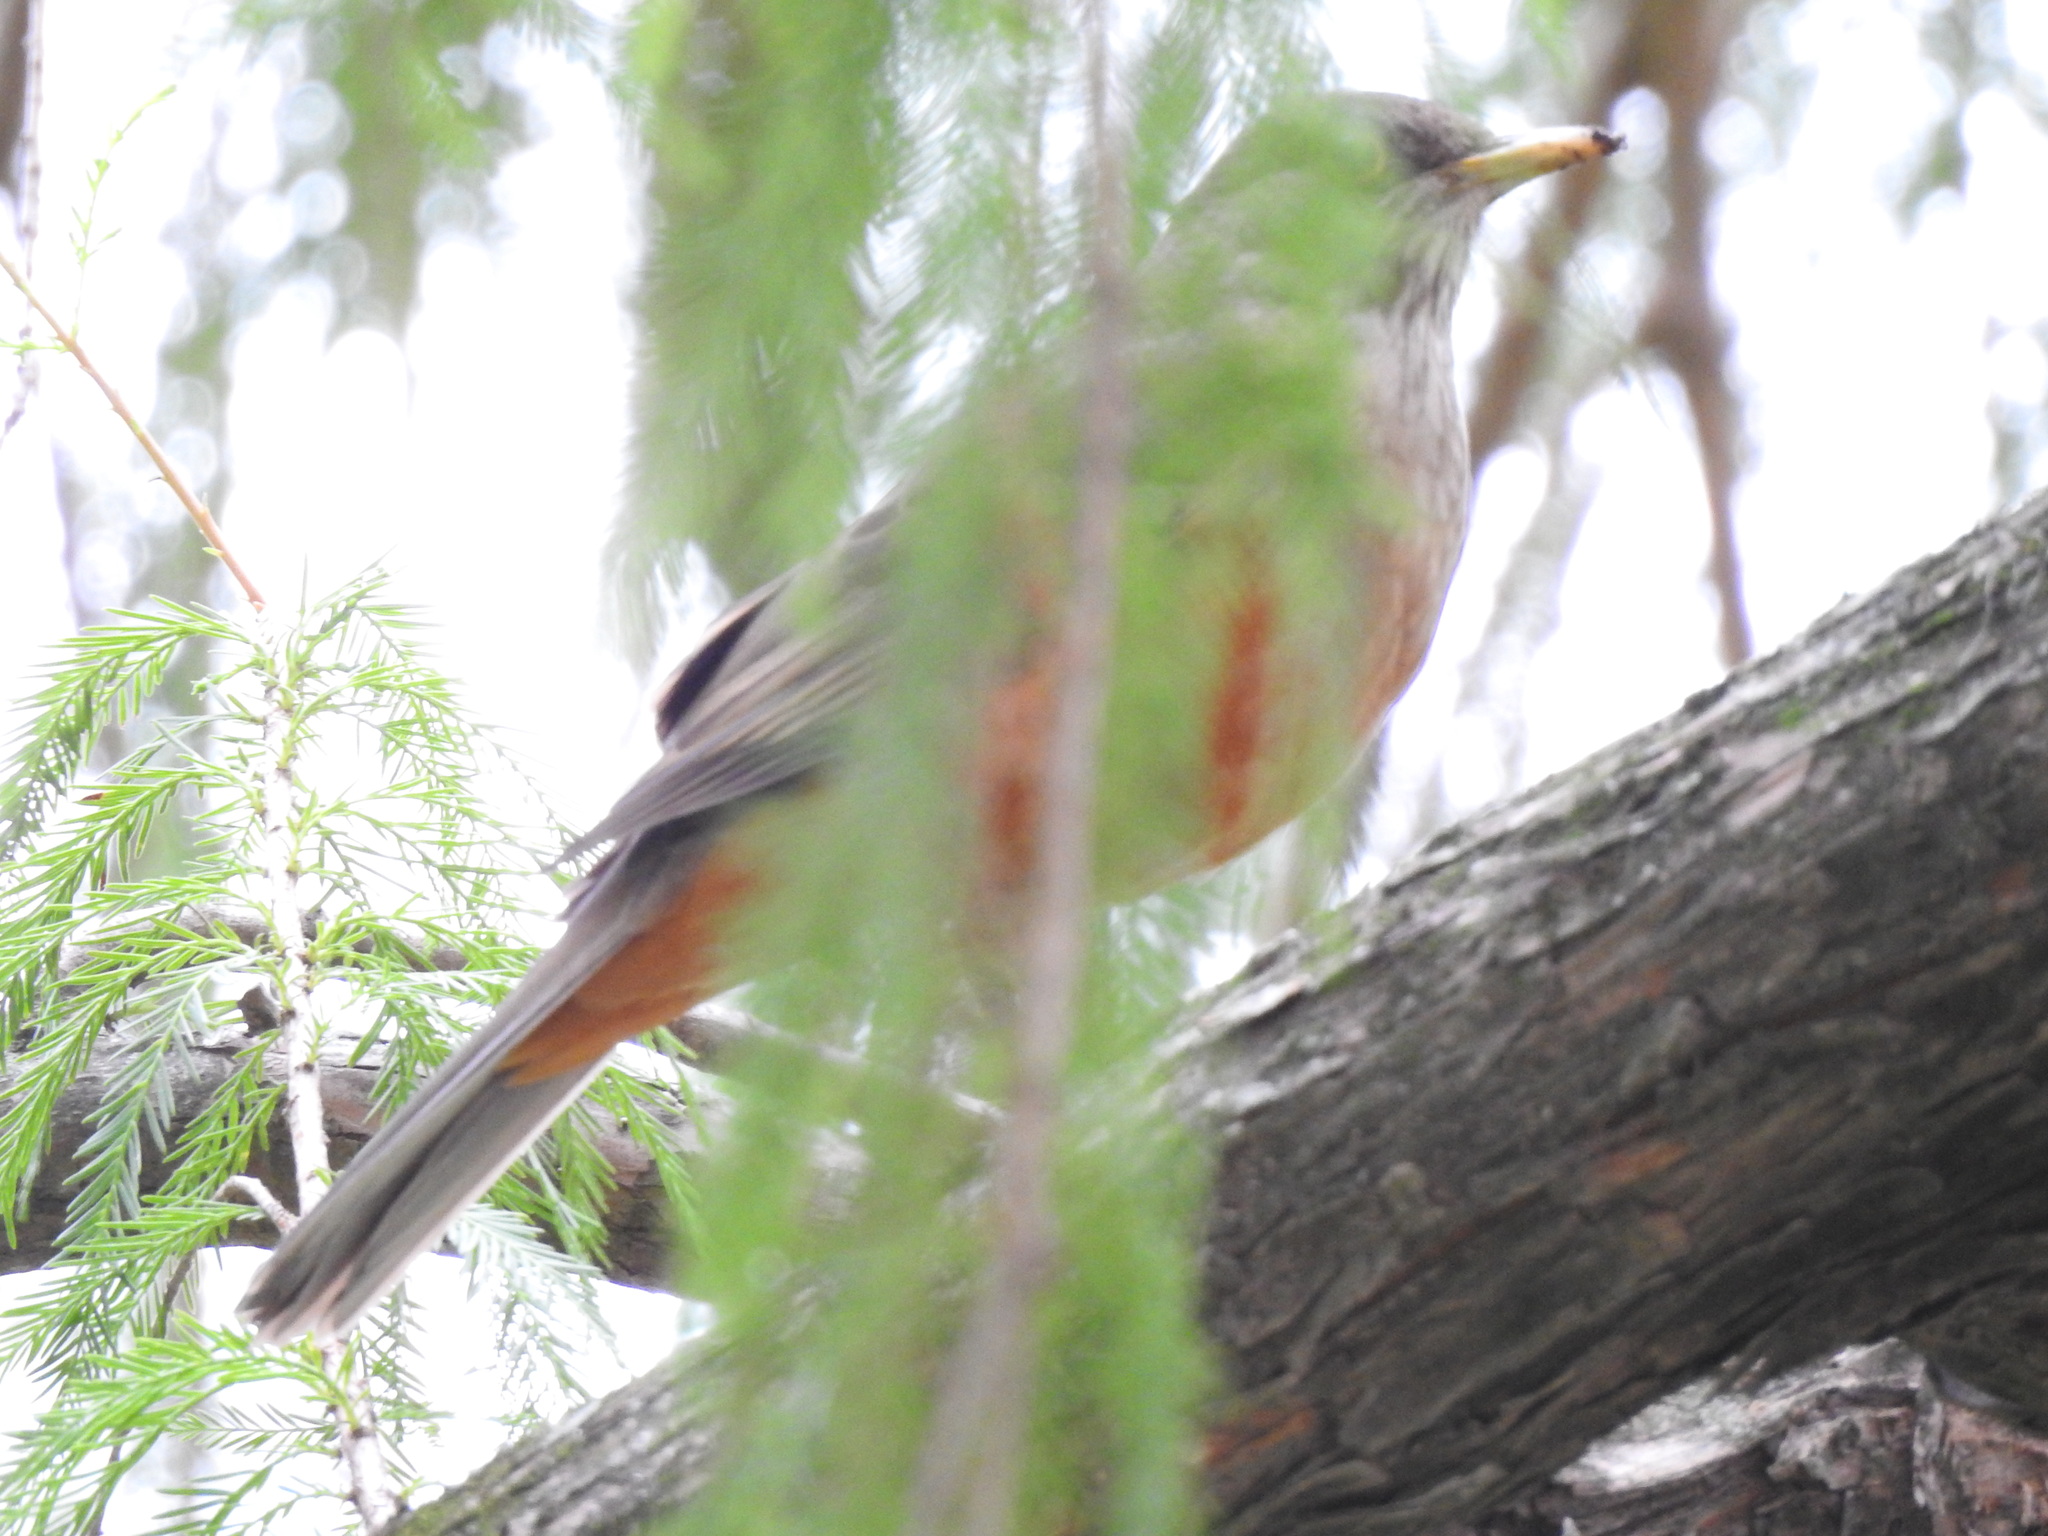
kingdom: Animalia
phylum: Chordata
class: Aves
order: Passeriformes
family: Turdidae
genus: Turdus
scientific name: Turdus rufiventris
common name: Rufous-bellied thrush
